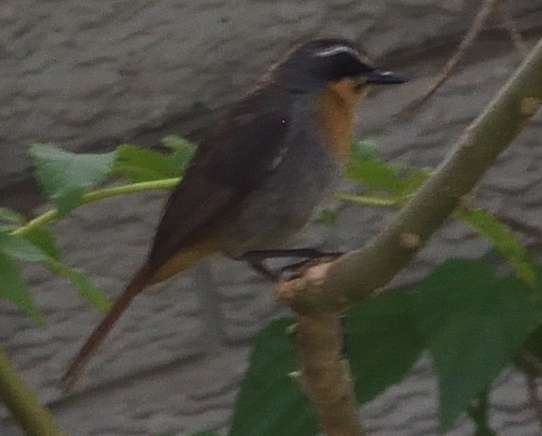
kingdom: Animalia
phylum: Chordata
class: Aves
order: Passeriformes
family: Muscicapidae
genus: Cossypha
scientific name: Cossypha caffra
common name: Cape robin-chat
